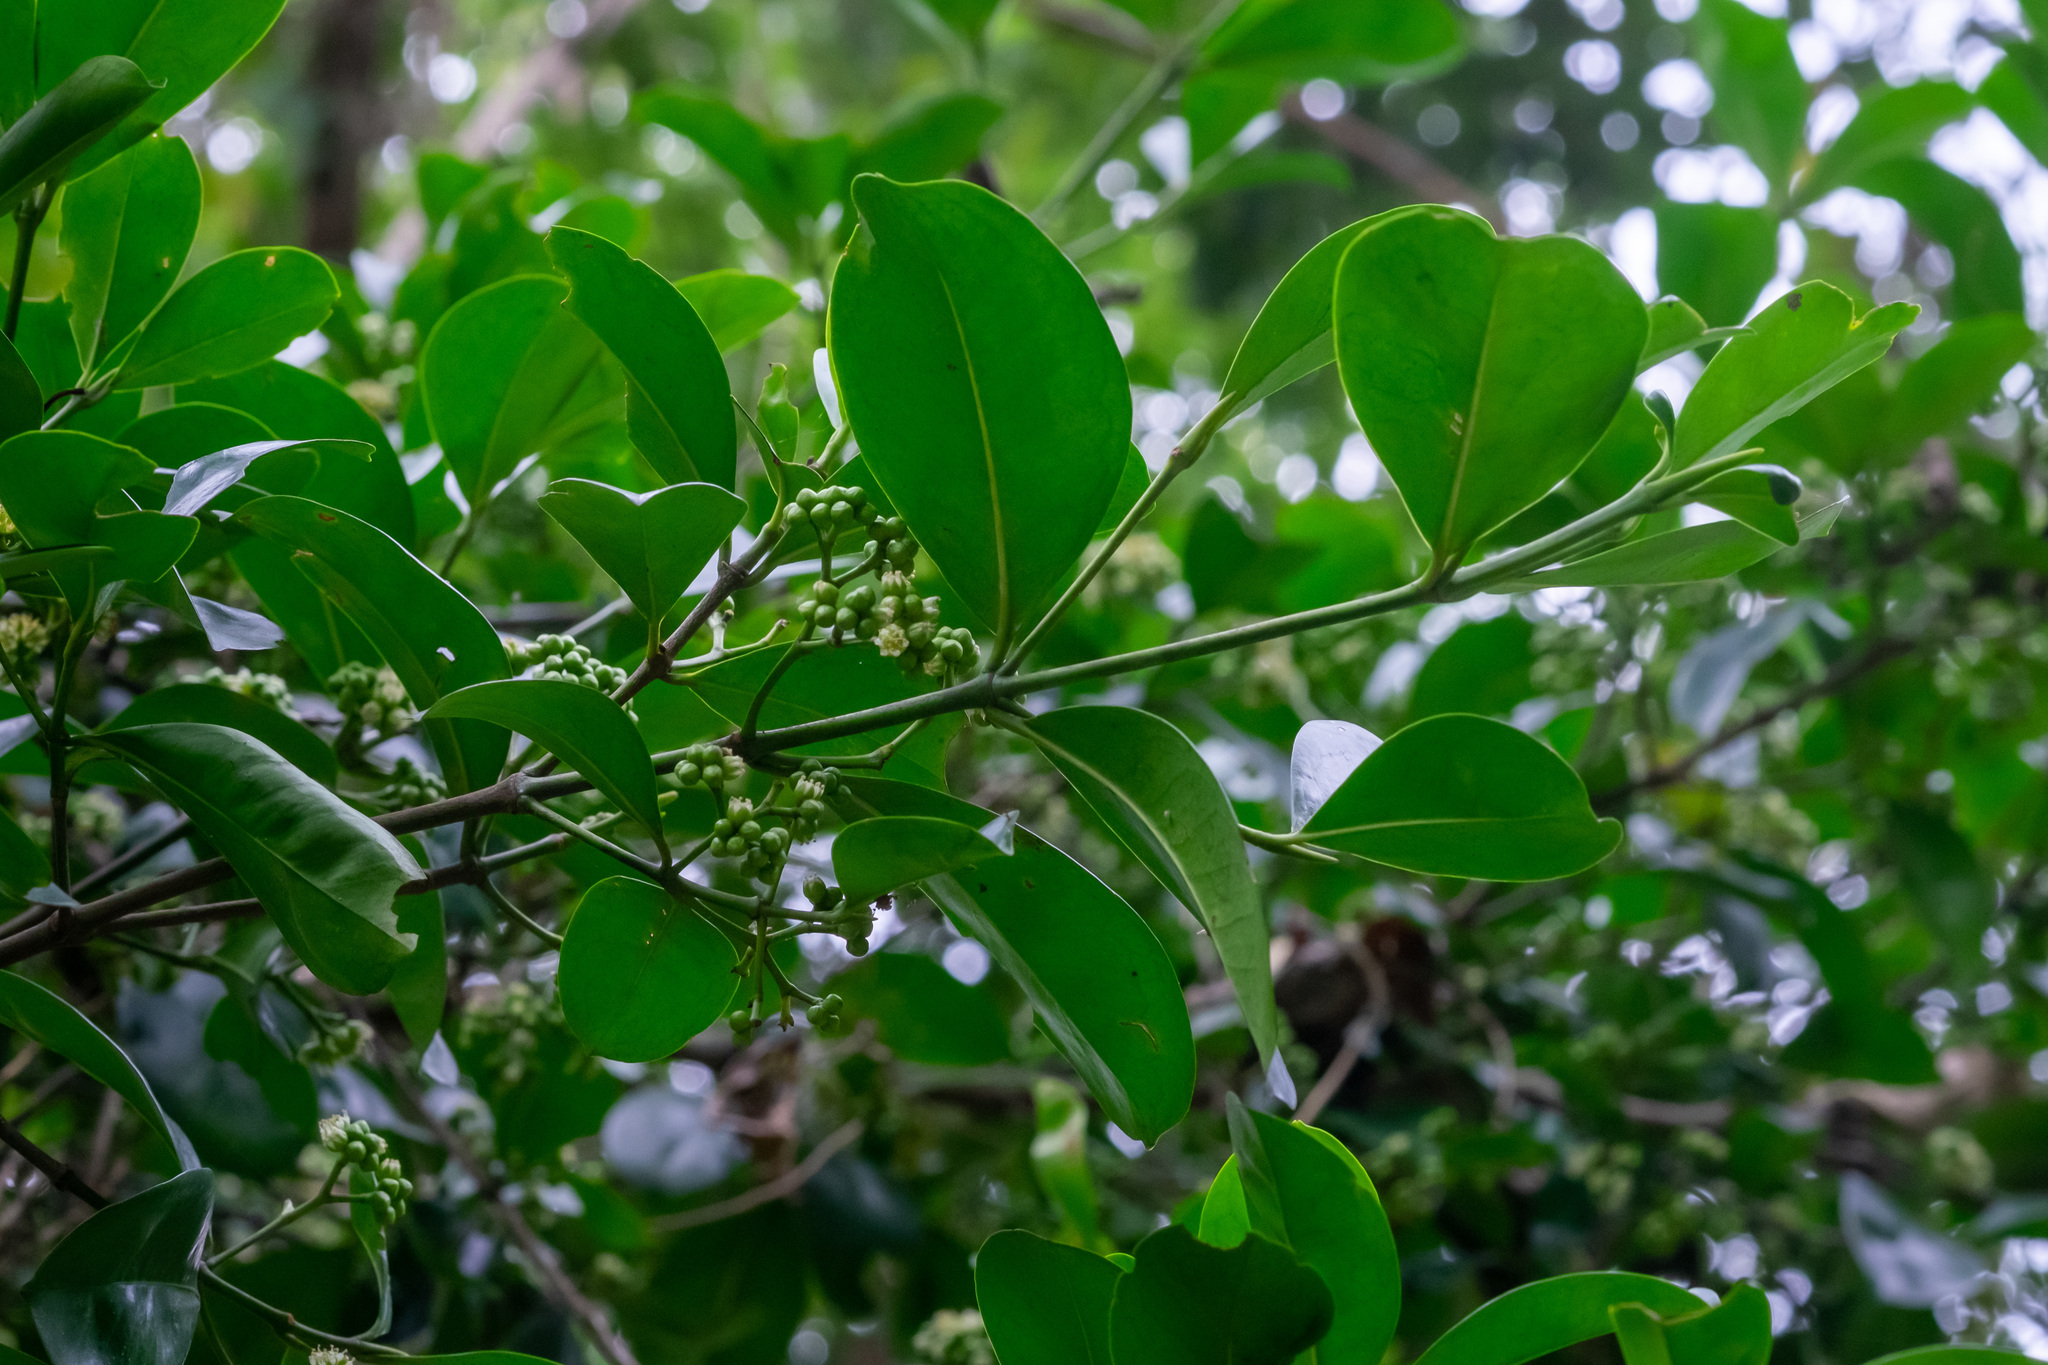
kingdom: Plantae
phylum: Tracheophyta
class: Magnoliopsida
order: Malpighiales
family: Rhizophoraceae
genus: Carallia
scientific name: Carallia brachiata
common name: Carallawood
